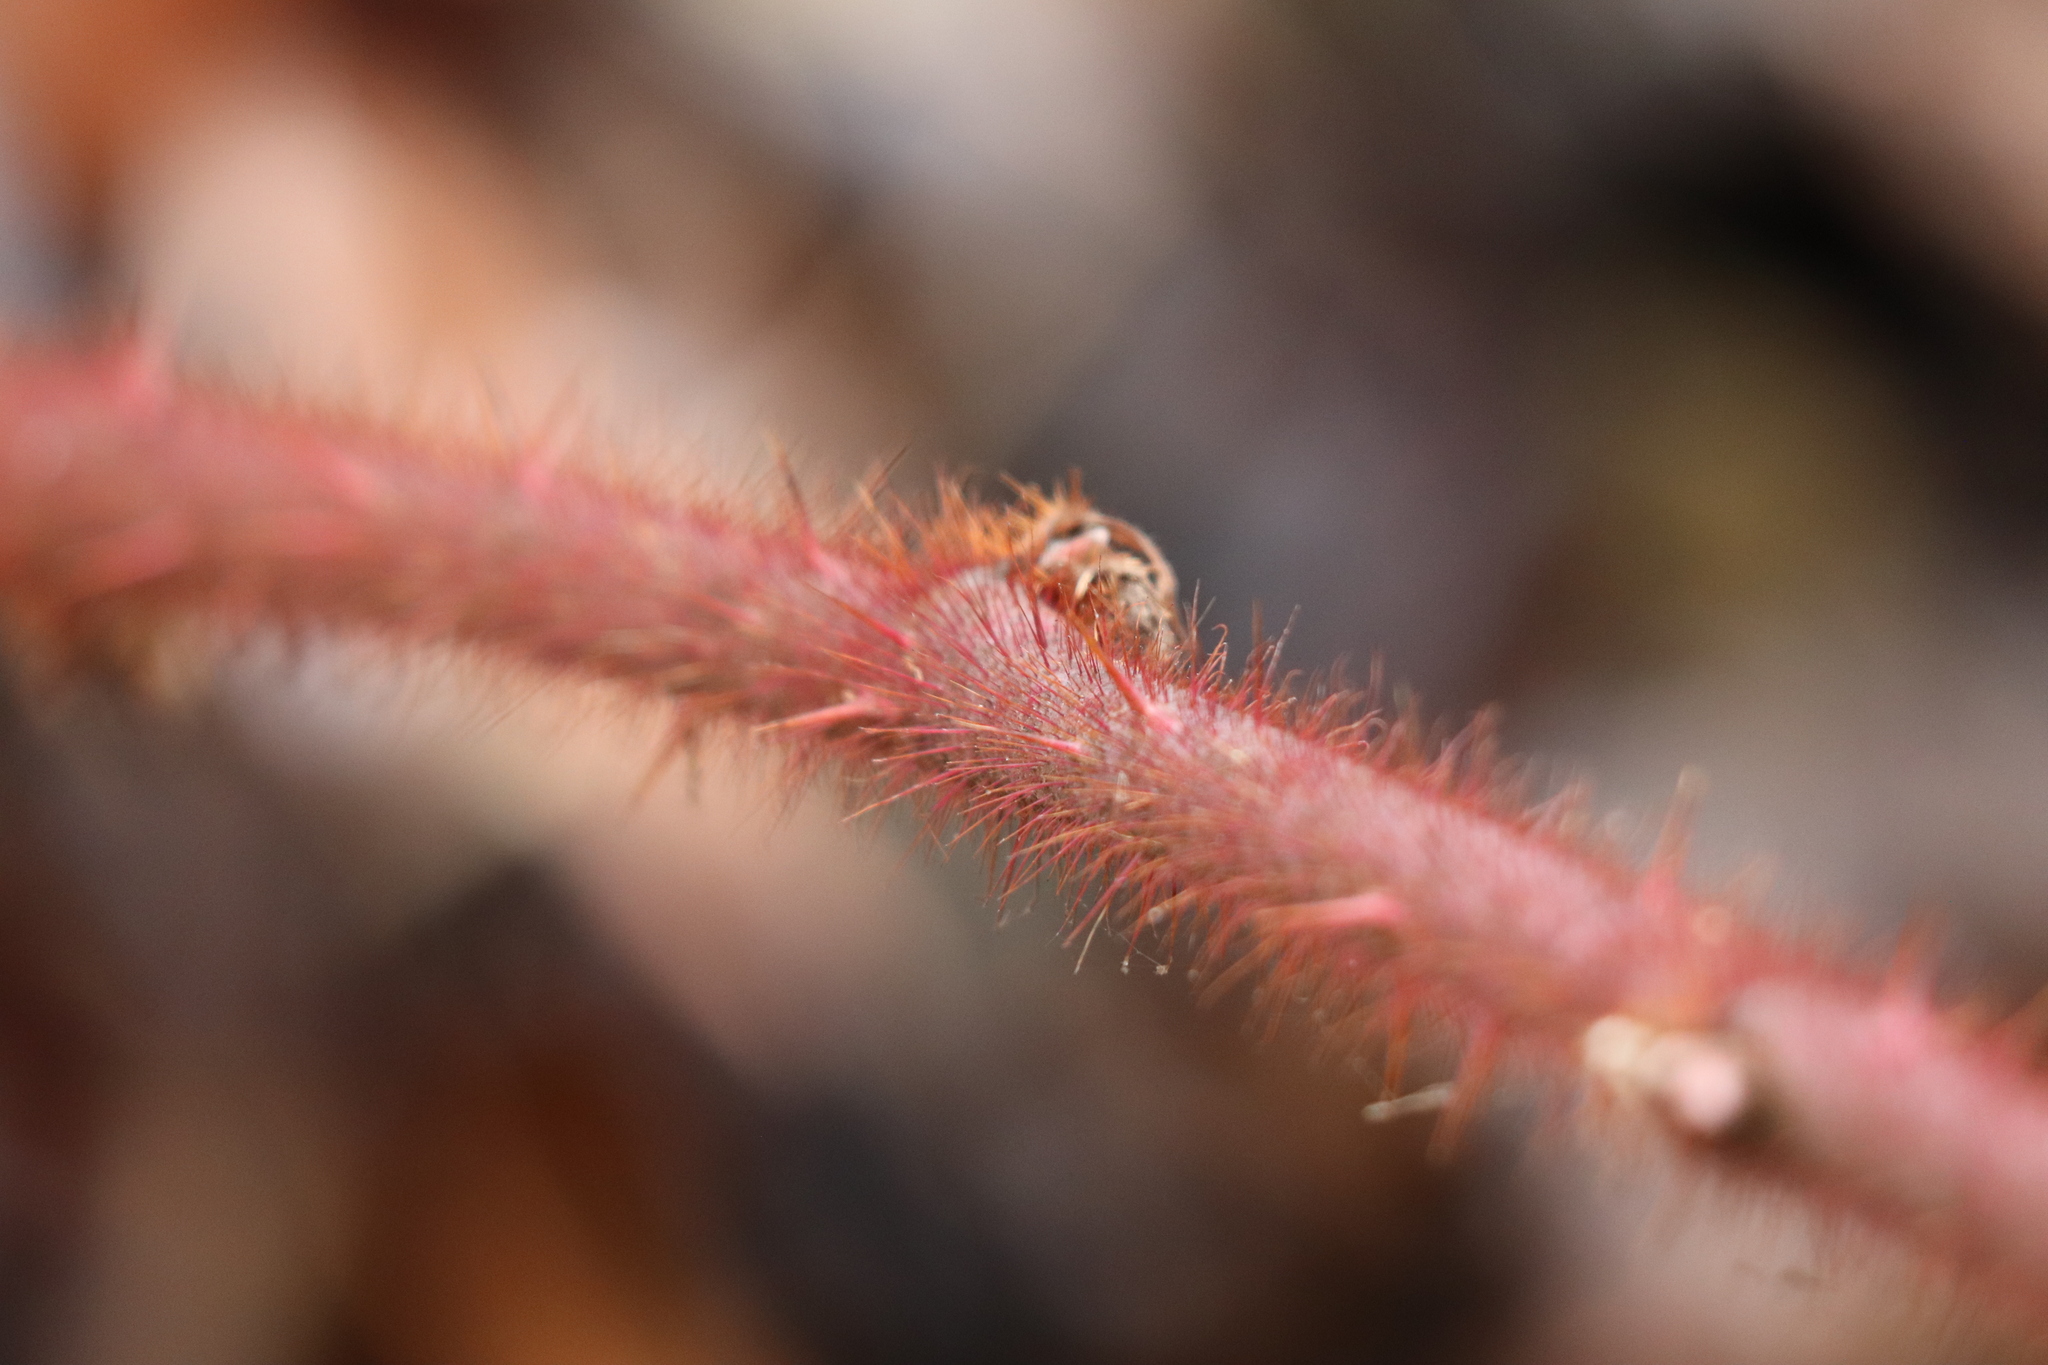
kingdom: Plantae
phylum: Tracheophyta
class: Magnoliopsida
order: Rosales
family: Rosaceae
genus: Rubus
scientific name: Rubus phoenicolasius
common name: Japanese wineberry
